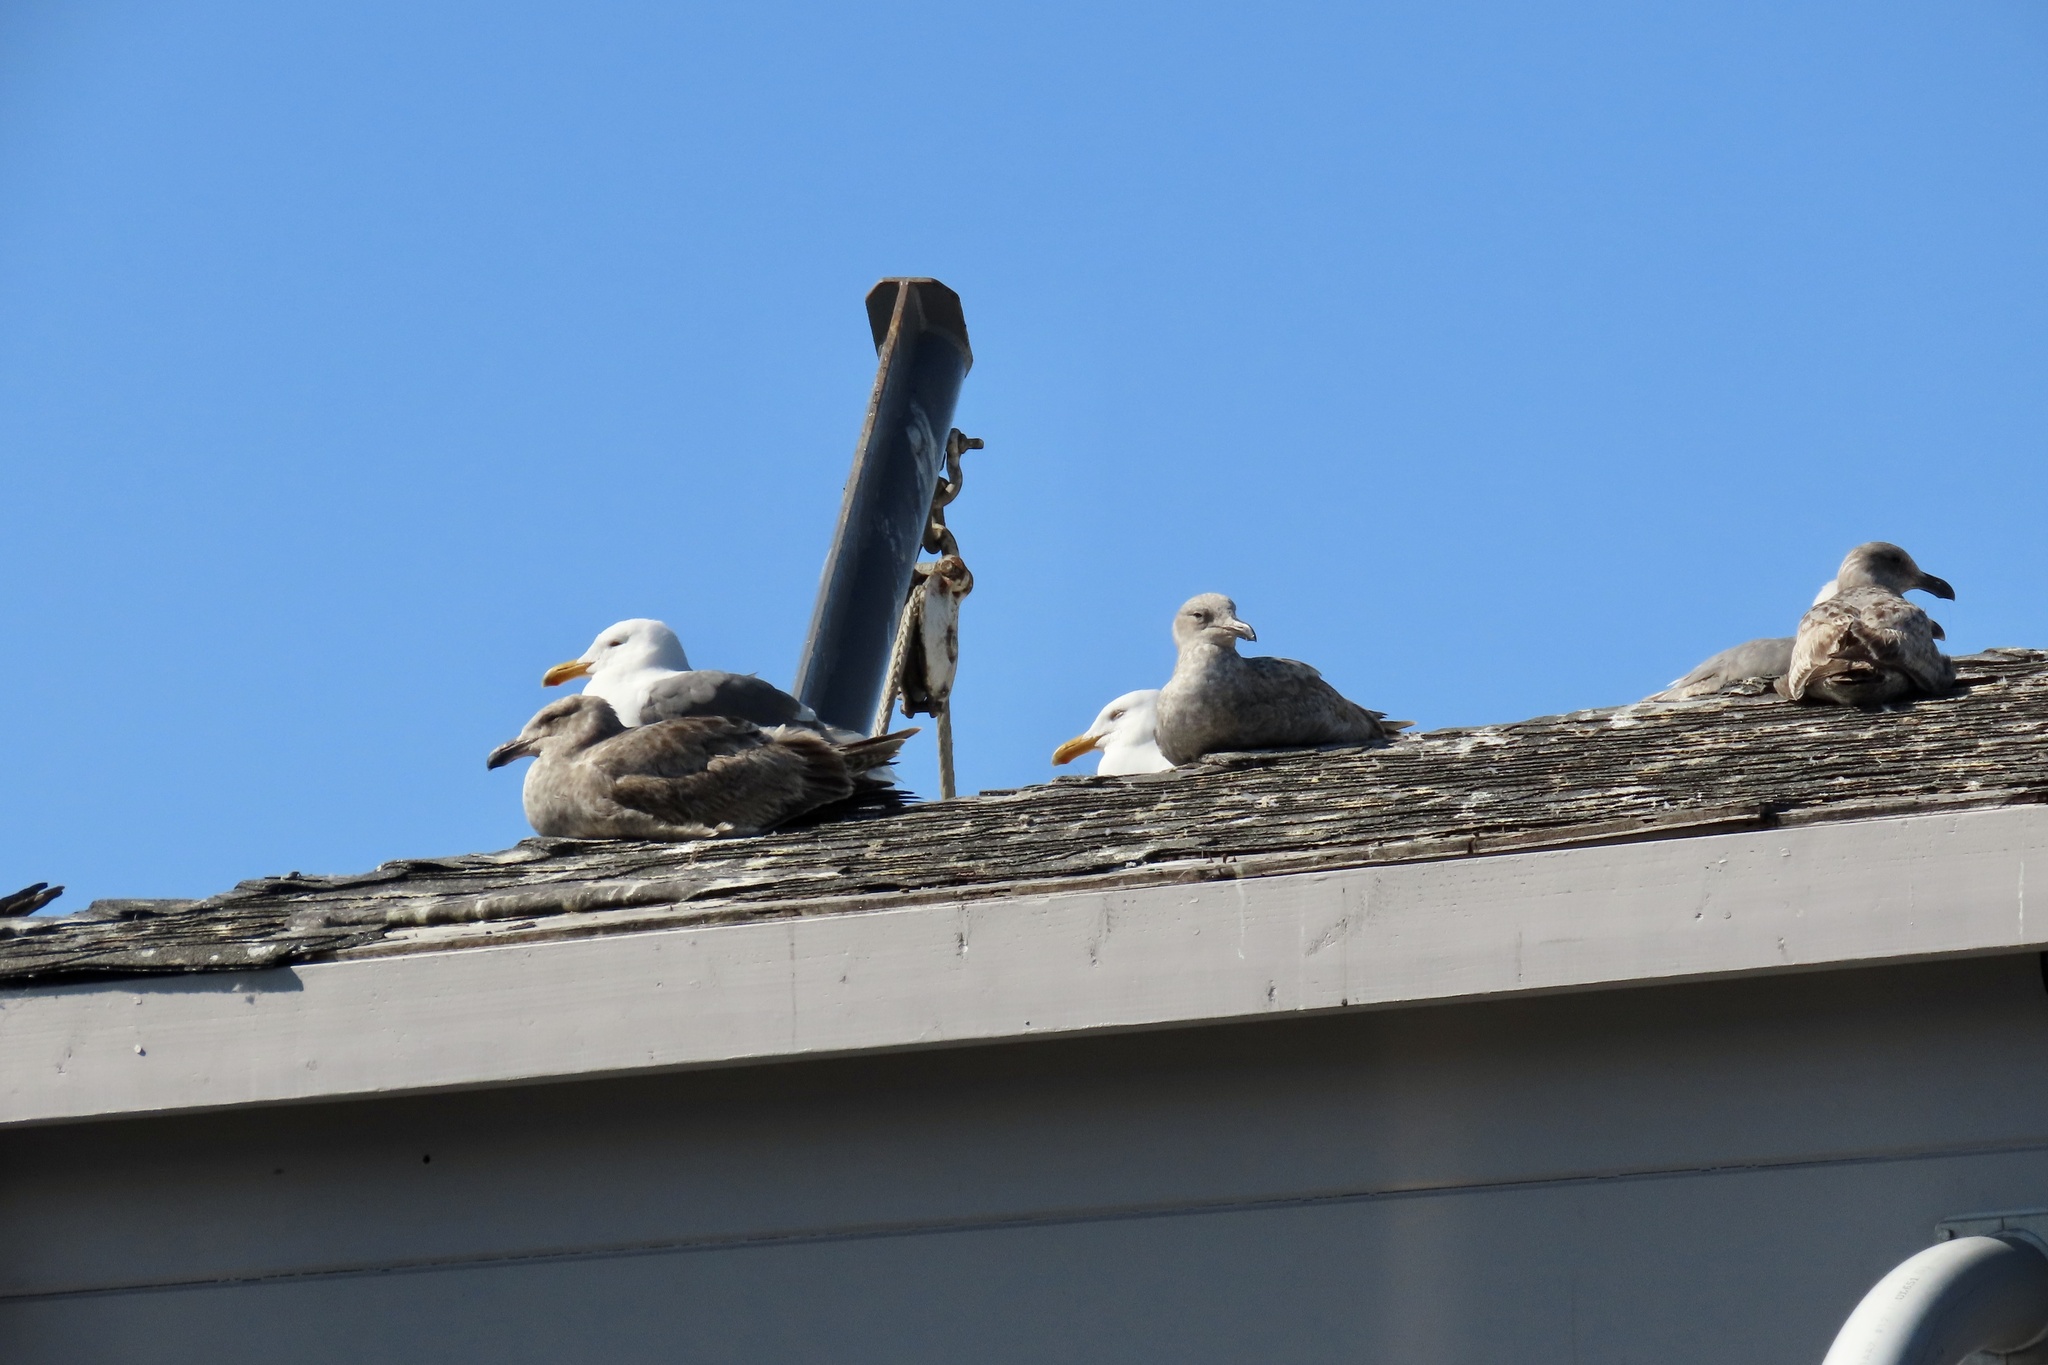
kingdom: Animalia
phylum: Chordata
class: Aves
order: Charadriiformes
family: Laridae
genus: Larus
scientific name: Larus occidentalis
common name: Western gull
